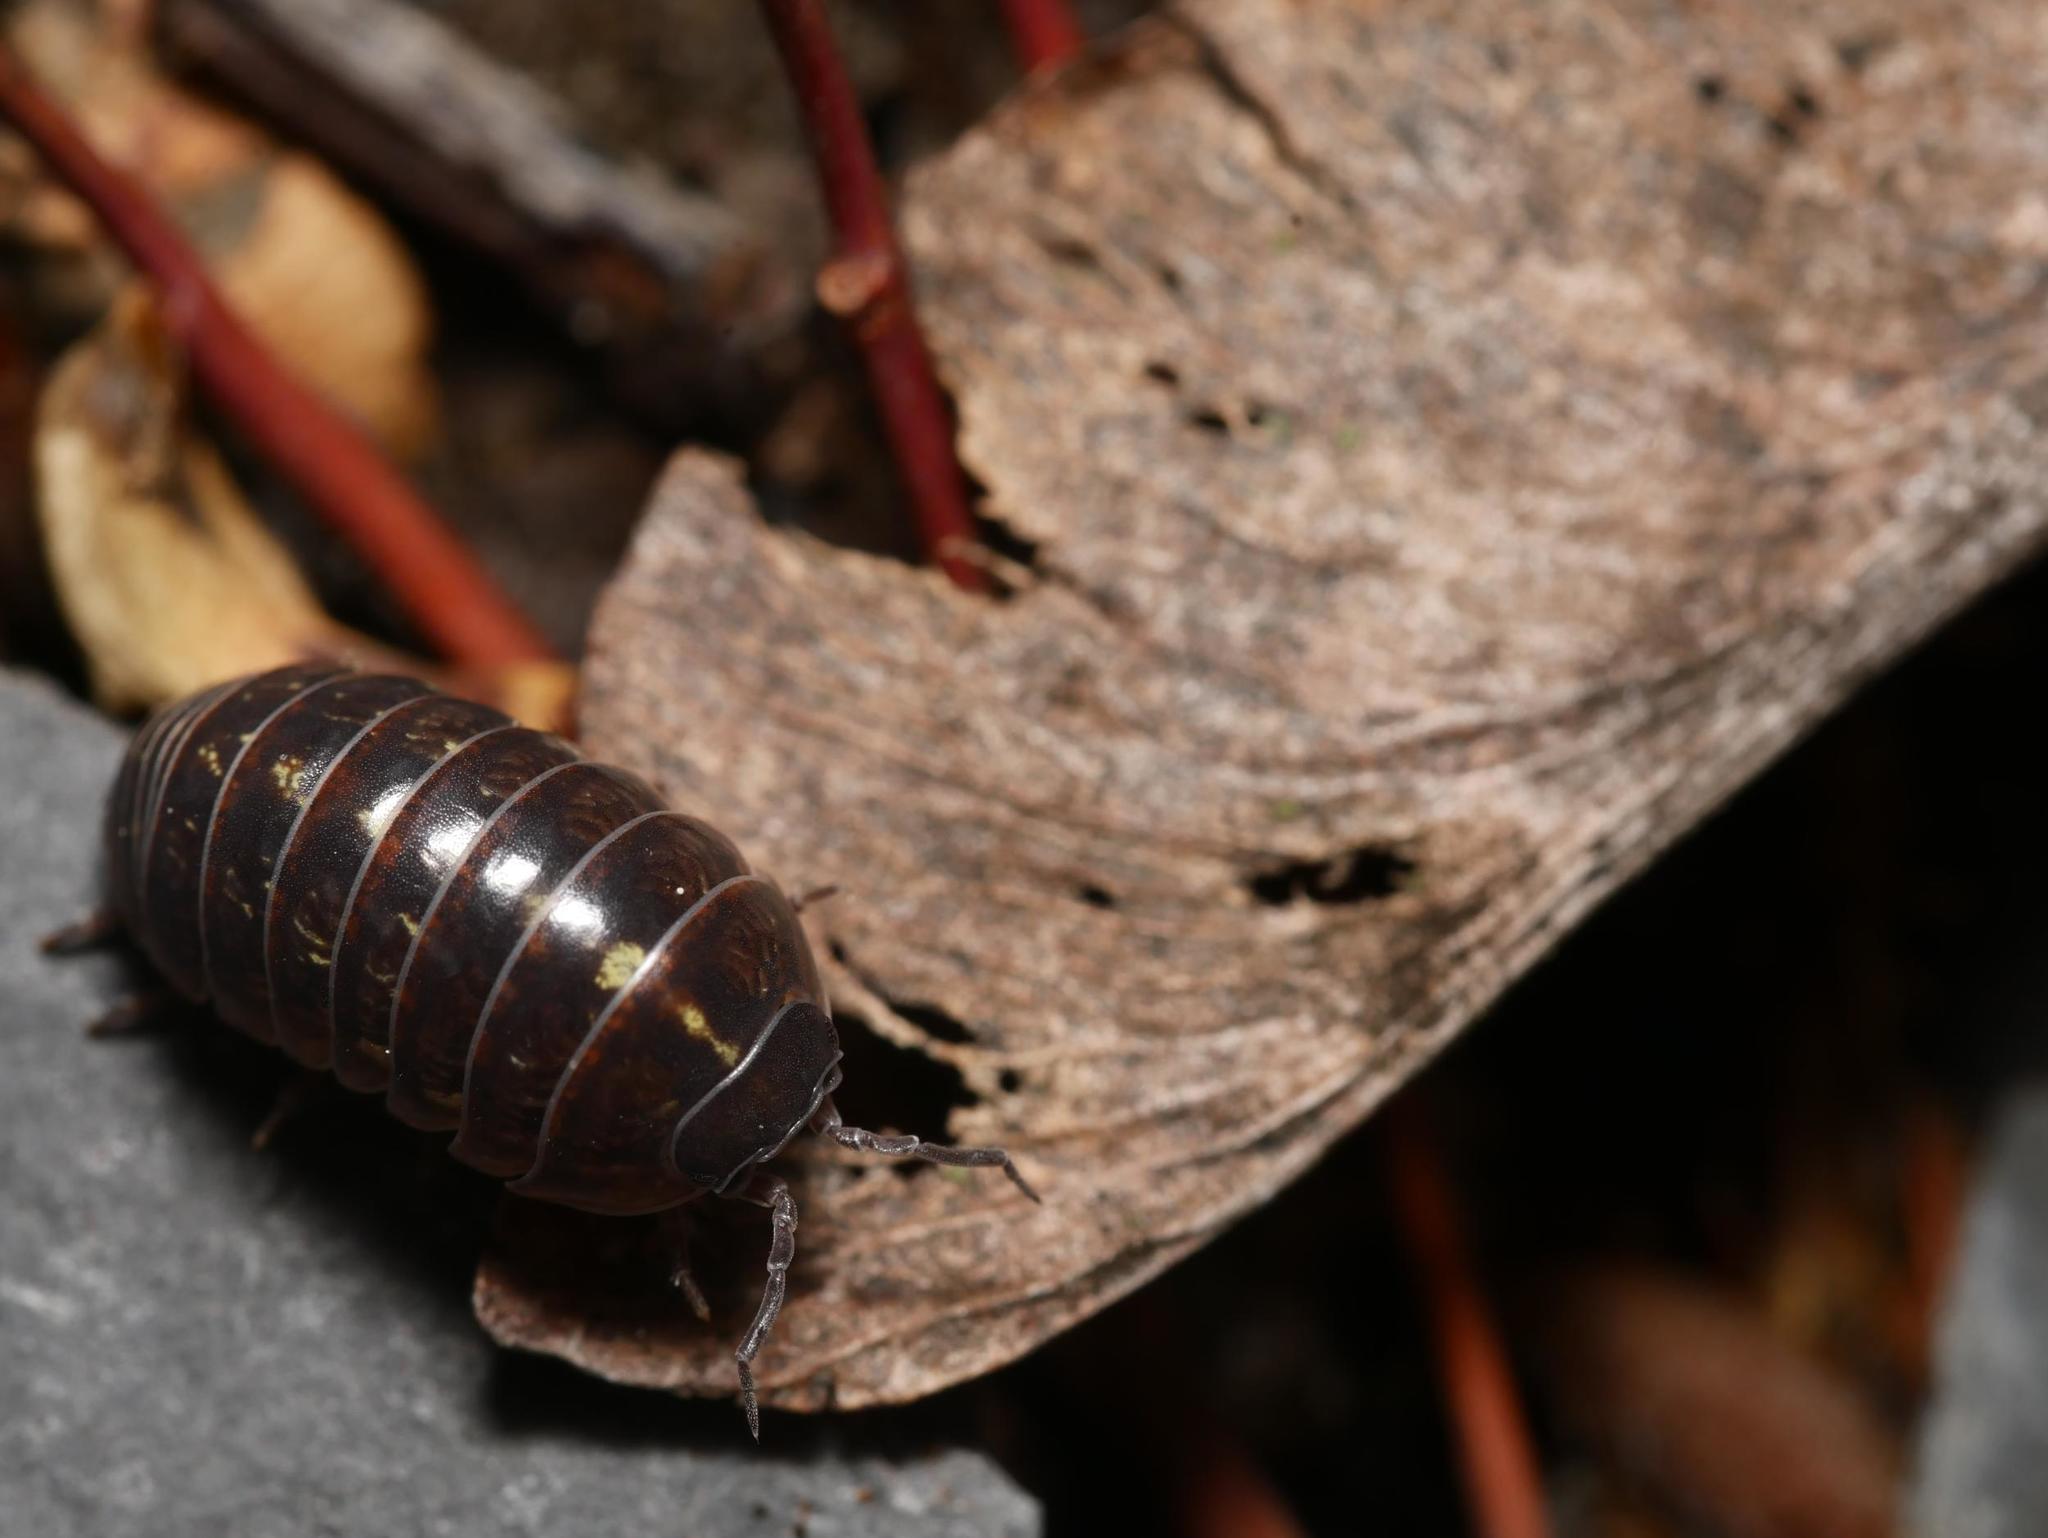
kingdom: Animalia
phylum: Arthropoda
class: Malacostraca
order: Isopoda
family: Armadillidiidae
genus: Armadillidium
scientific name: Armadillidium vulgare
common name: Common pill woodlouse
